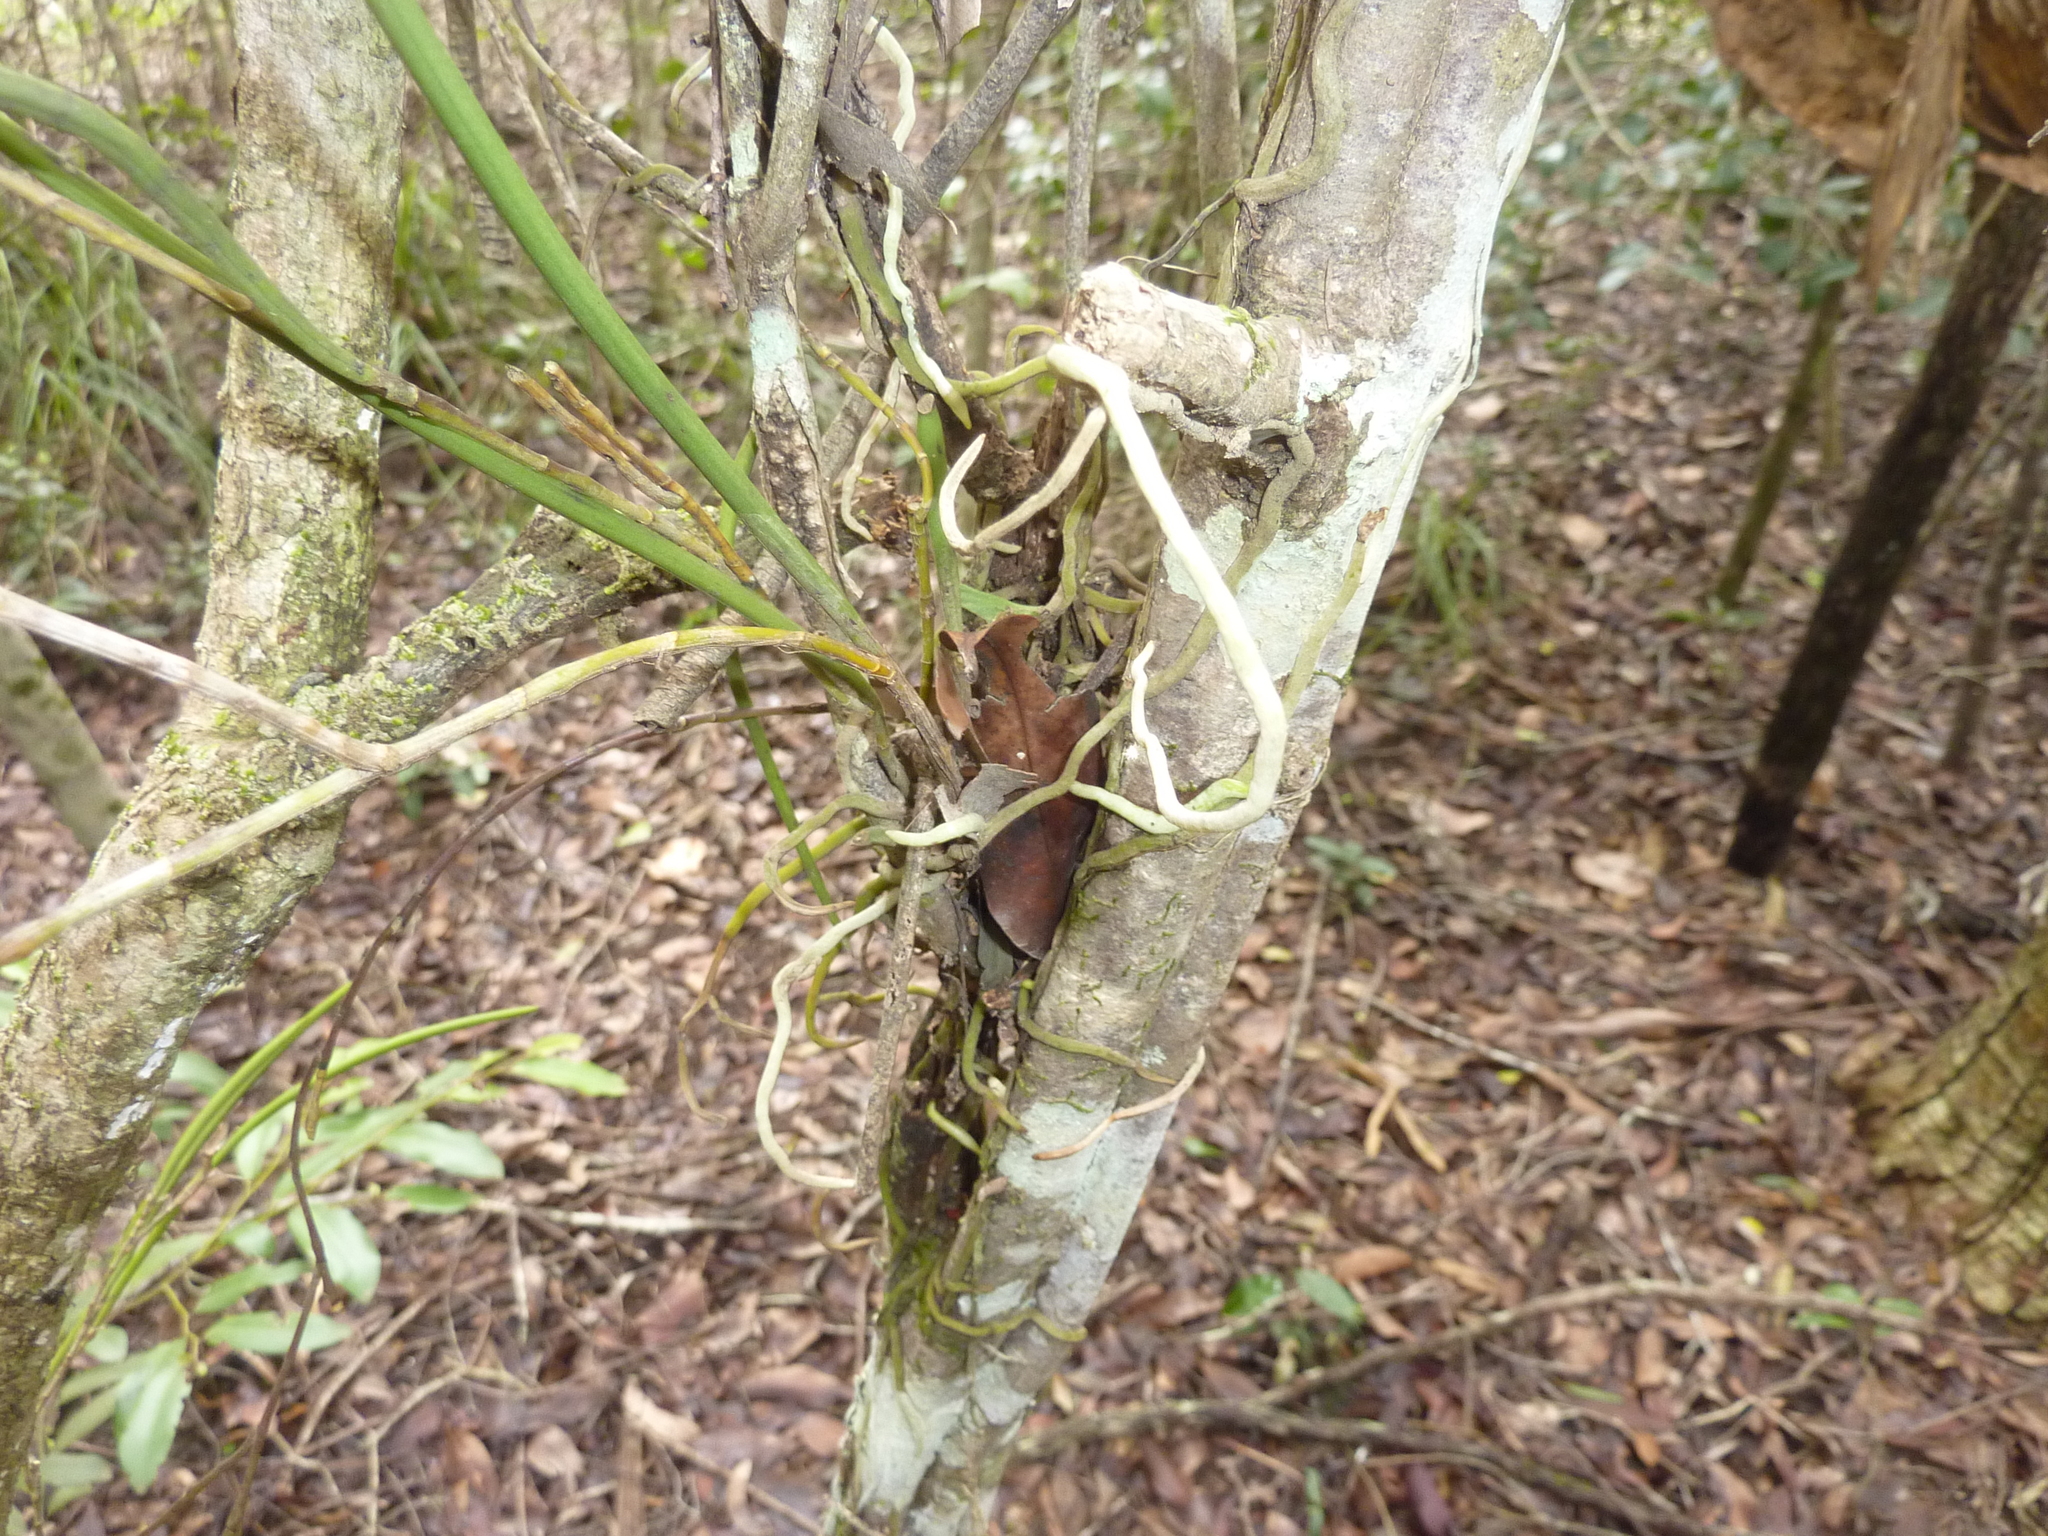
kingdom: Plantae
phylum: Tracheophyta
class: Liliopsida
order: Asparagales
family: Orchidaceae
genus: Dendrobium
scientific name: Dendrobium bowmanii
